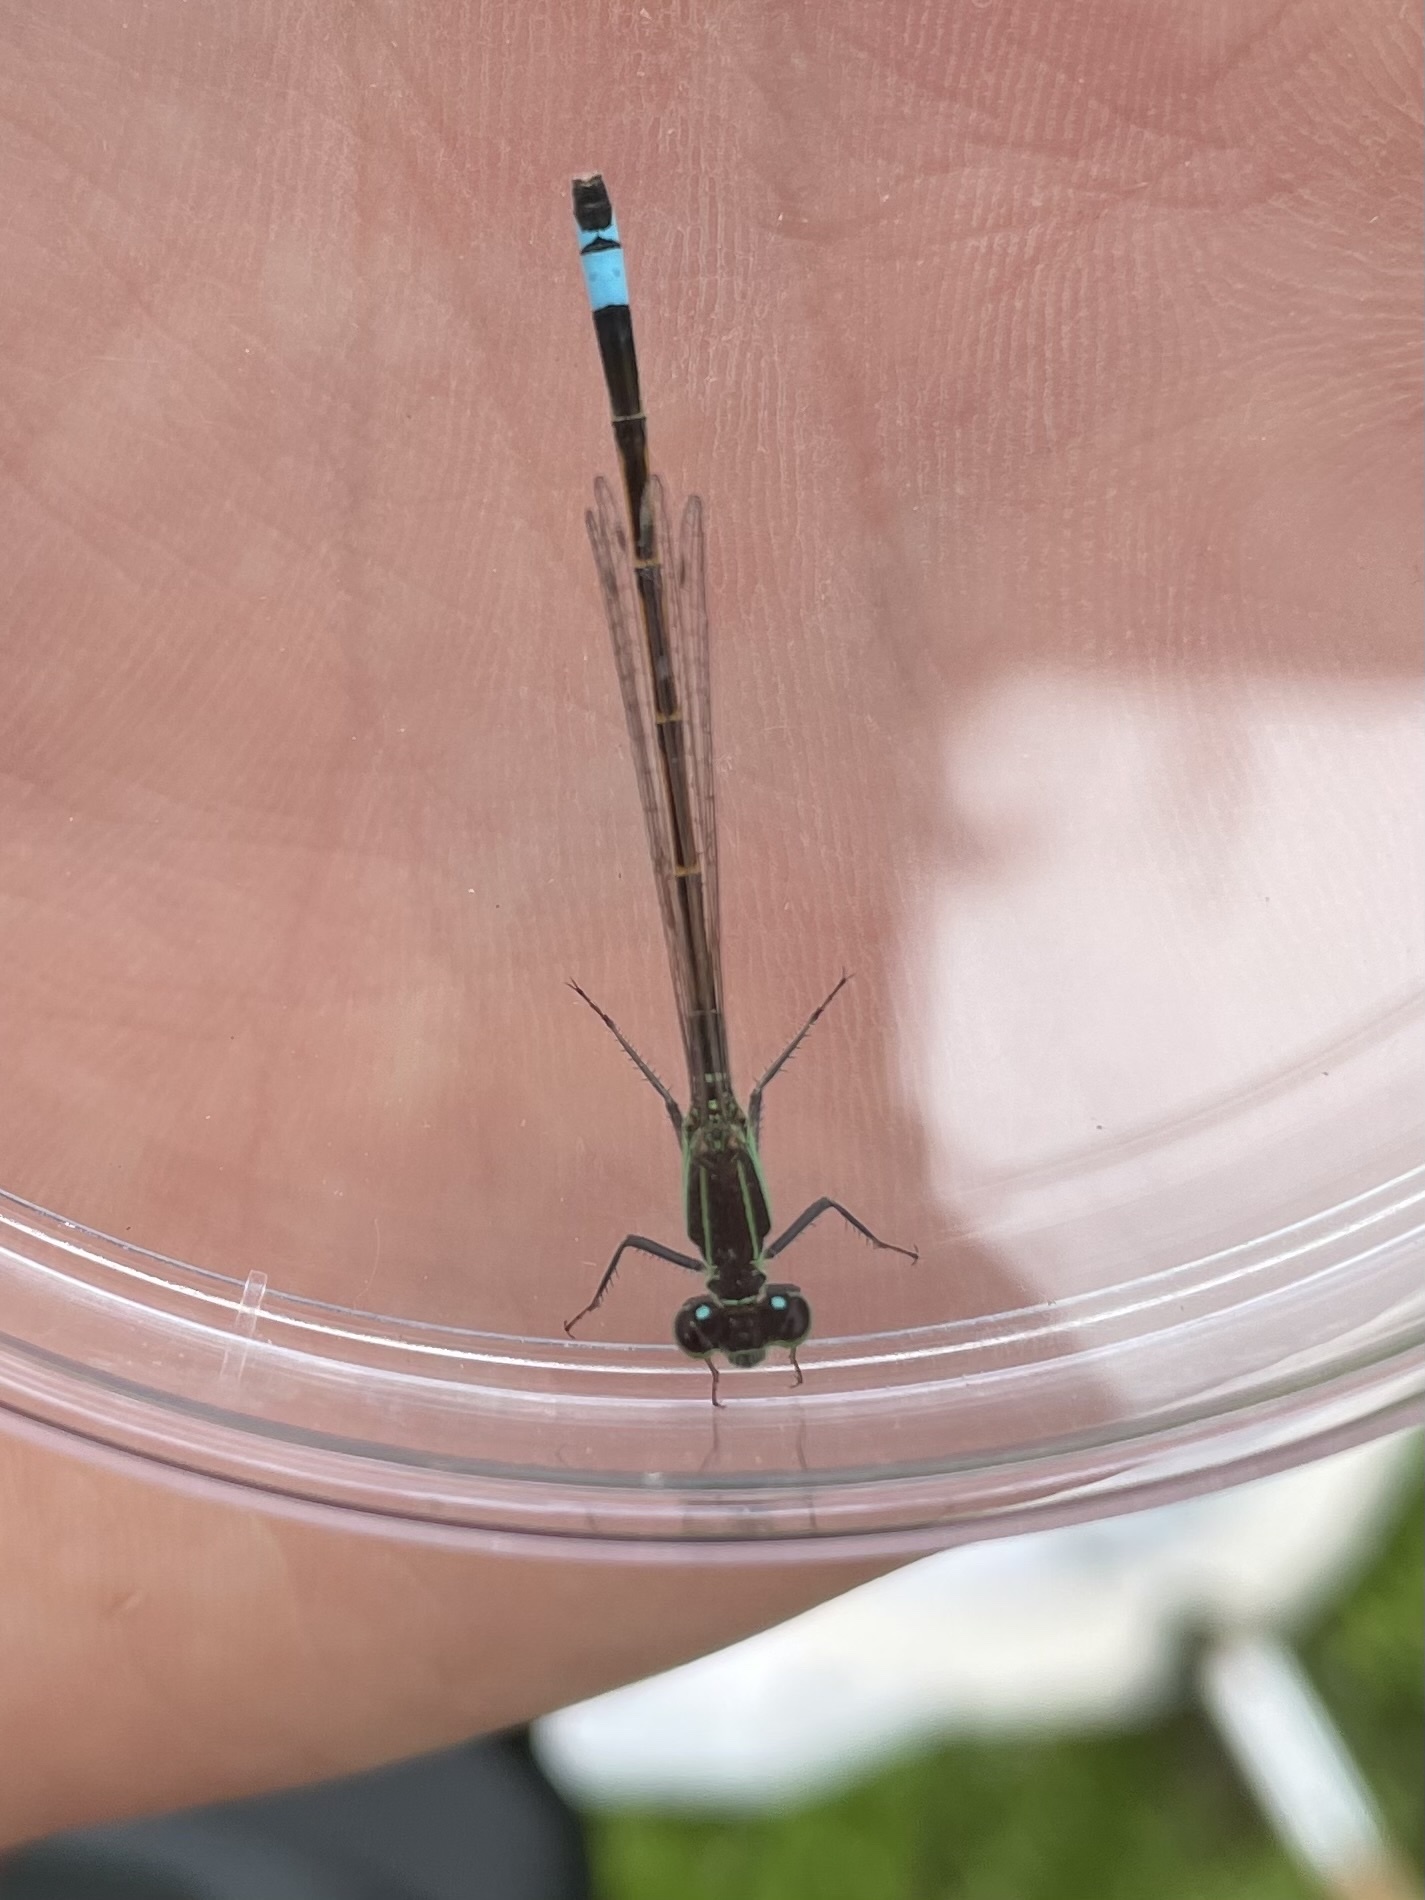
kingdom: Animalia
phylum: Arthropoda
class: Insecta
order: Odonata
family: Coenagrionidae
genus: Ischnura
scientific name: Ischnura ramburii
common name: Rambur's forktail
